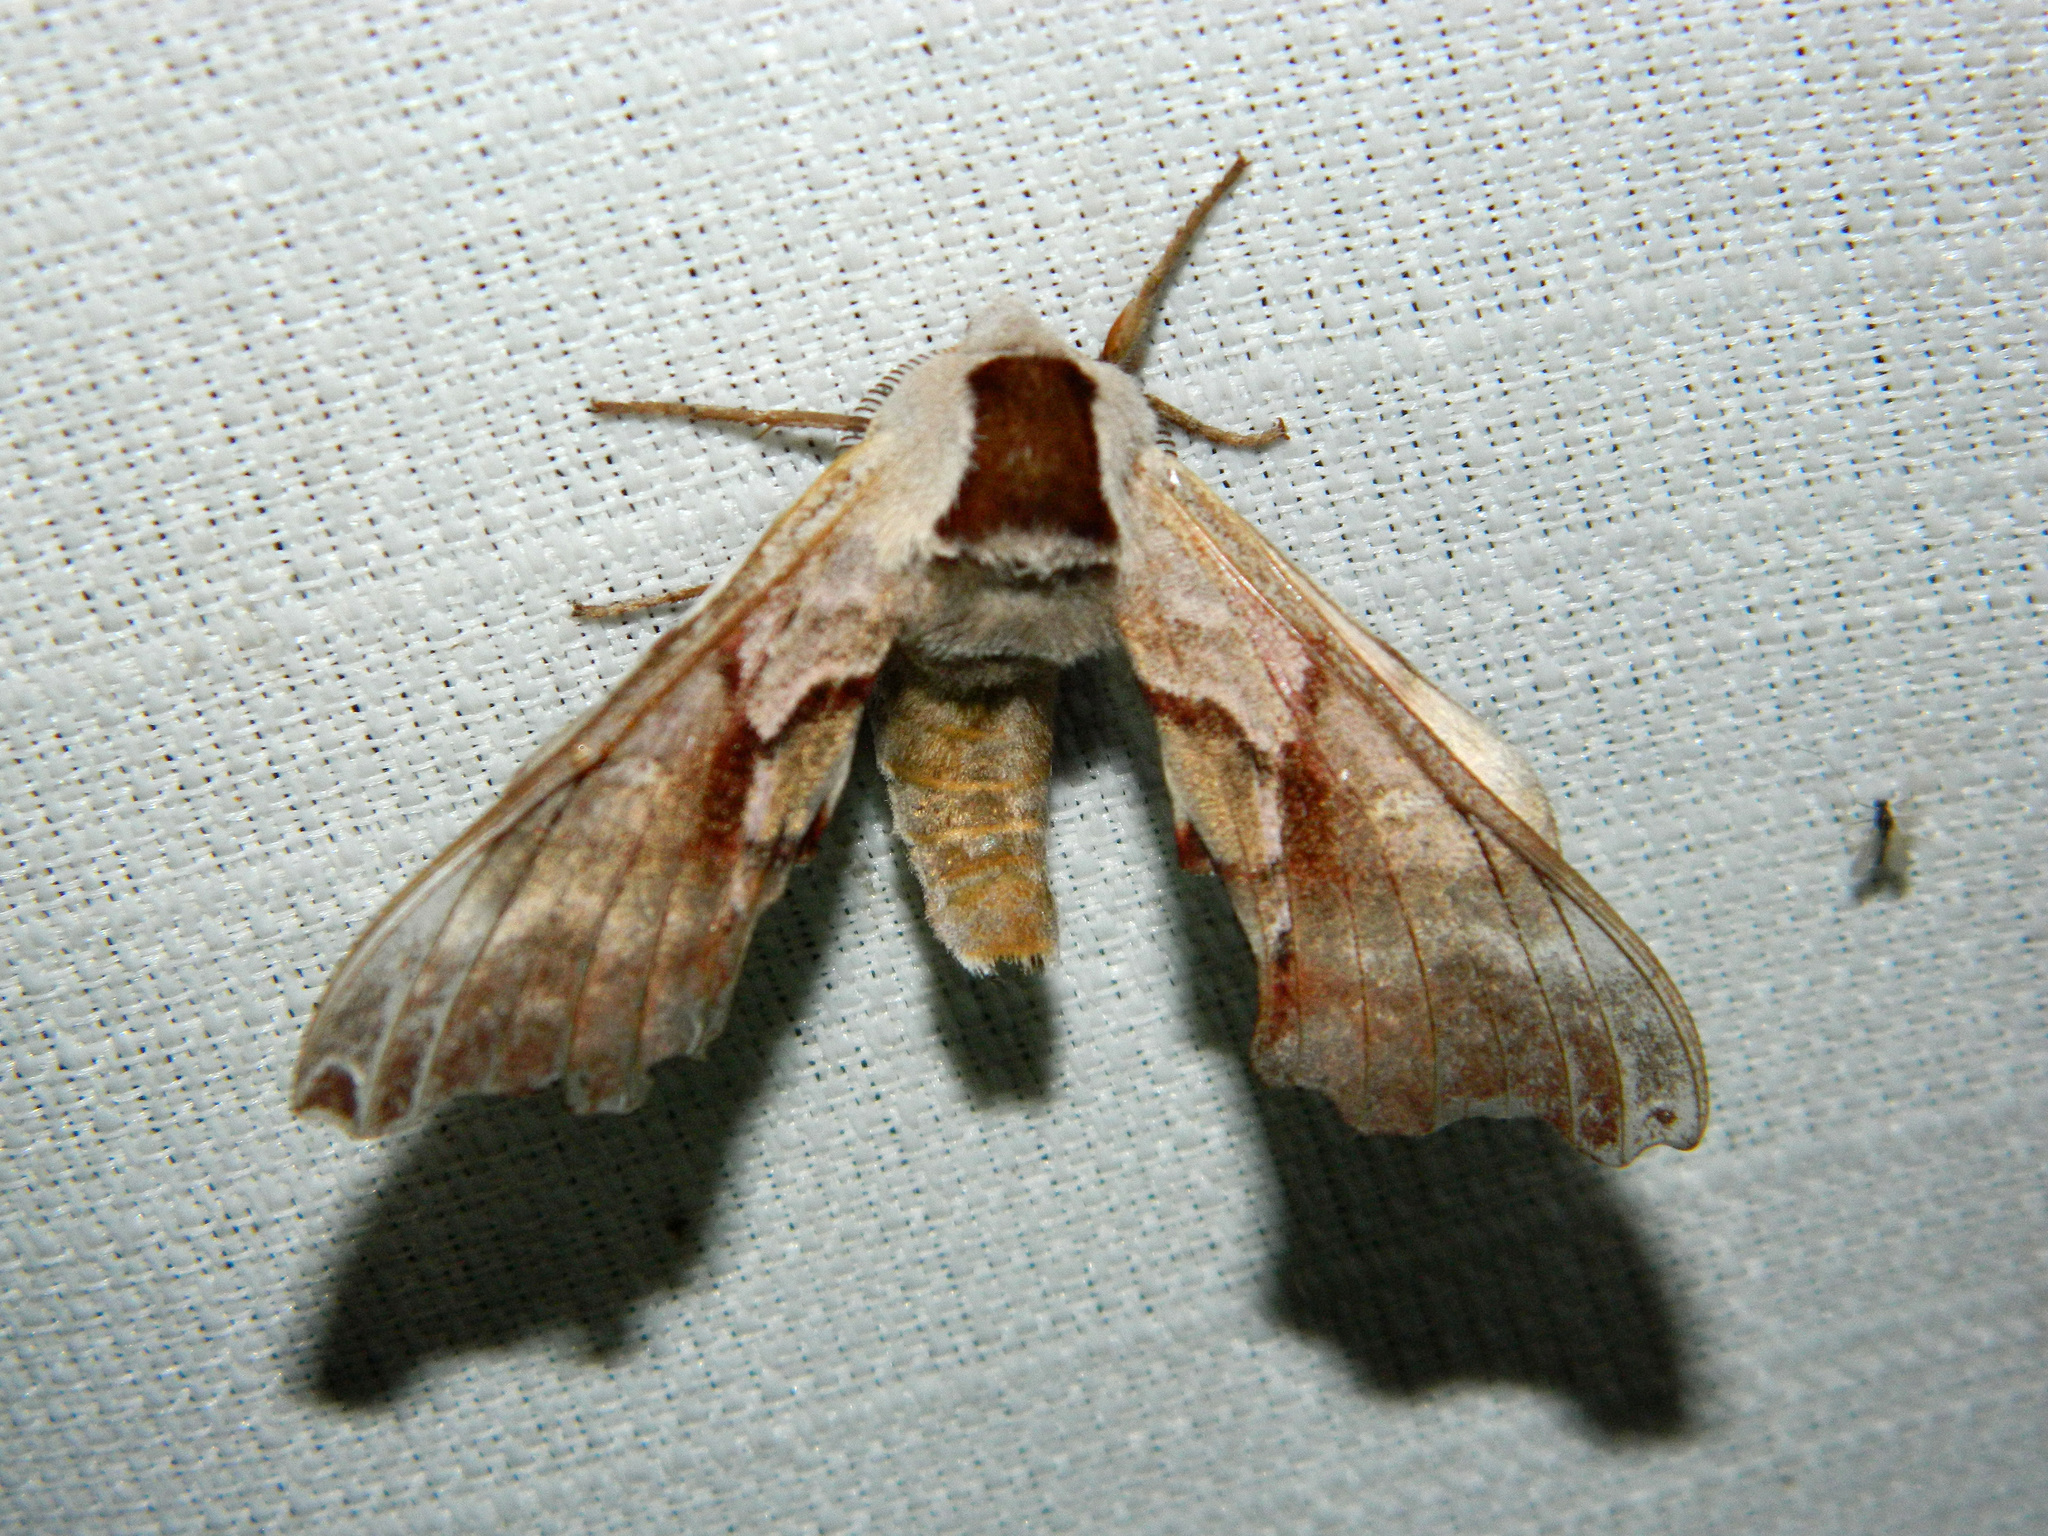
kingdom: Animalia
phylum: Arthropoda
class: Insecta
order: Lepidoptera
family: Sphingidae
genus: Smerinthus
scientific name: Smerinthus jamaicensis
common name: Twin spotted sphinx
